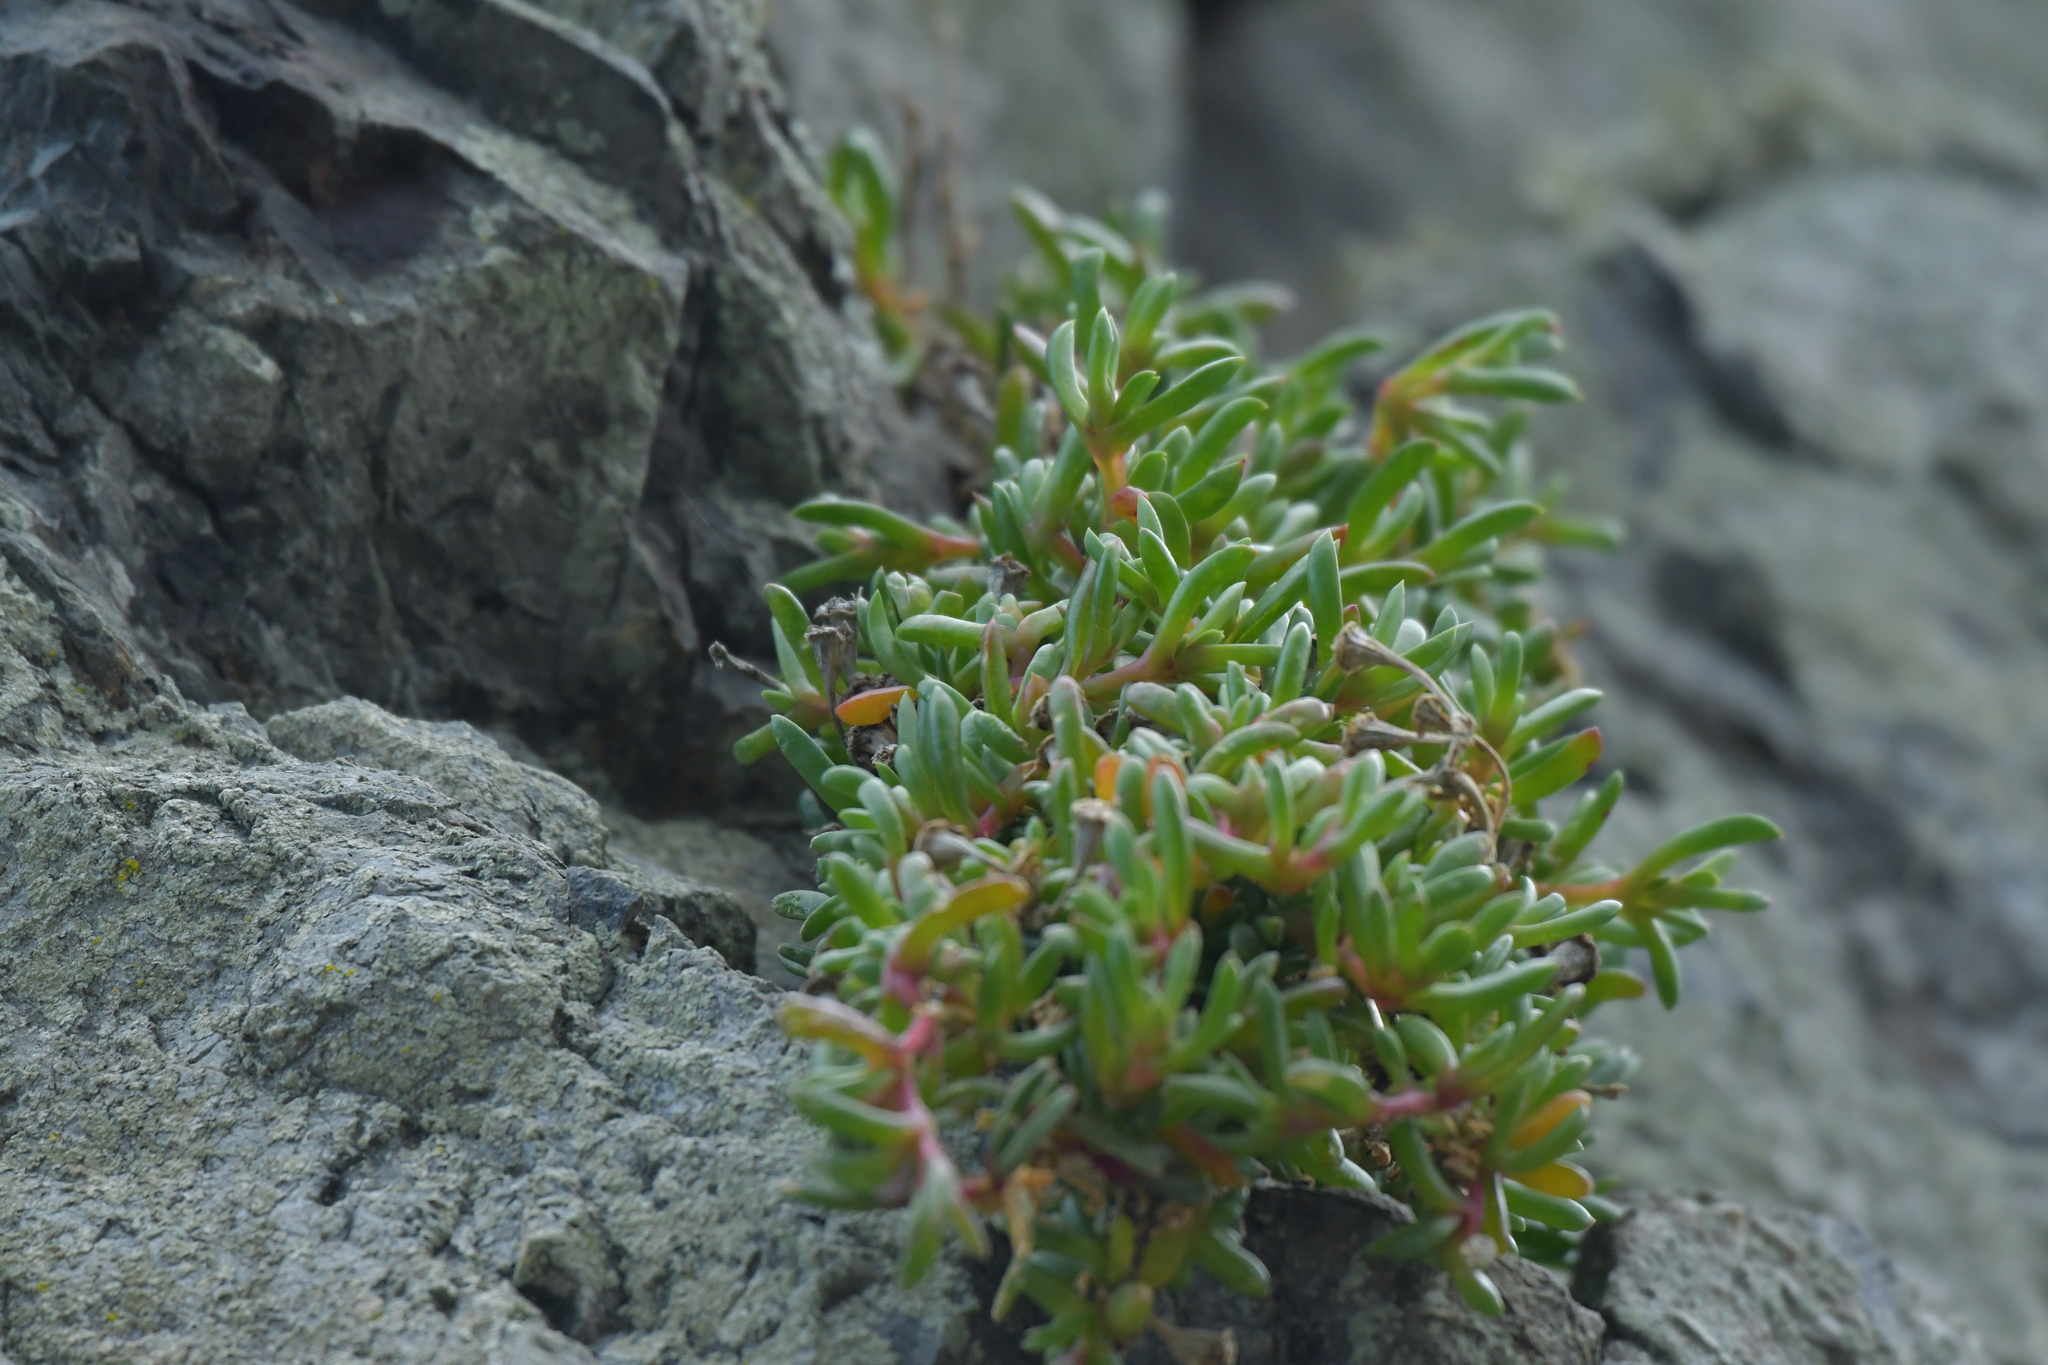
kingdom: Plantae
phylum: Tracheophyta
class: Magnoliopsida
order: Caryophyllales
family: Aizoaceae
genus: Disphyma
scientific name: Disphyma australe
